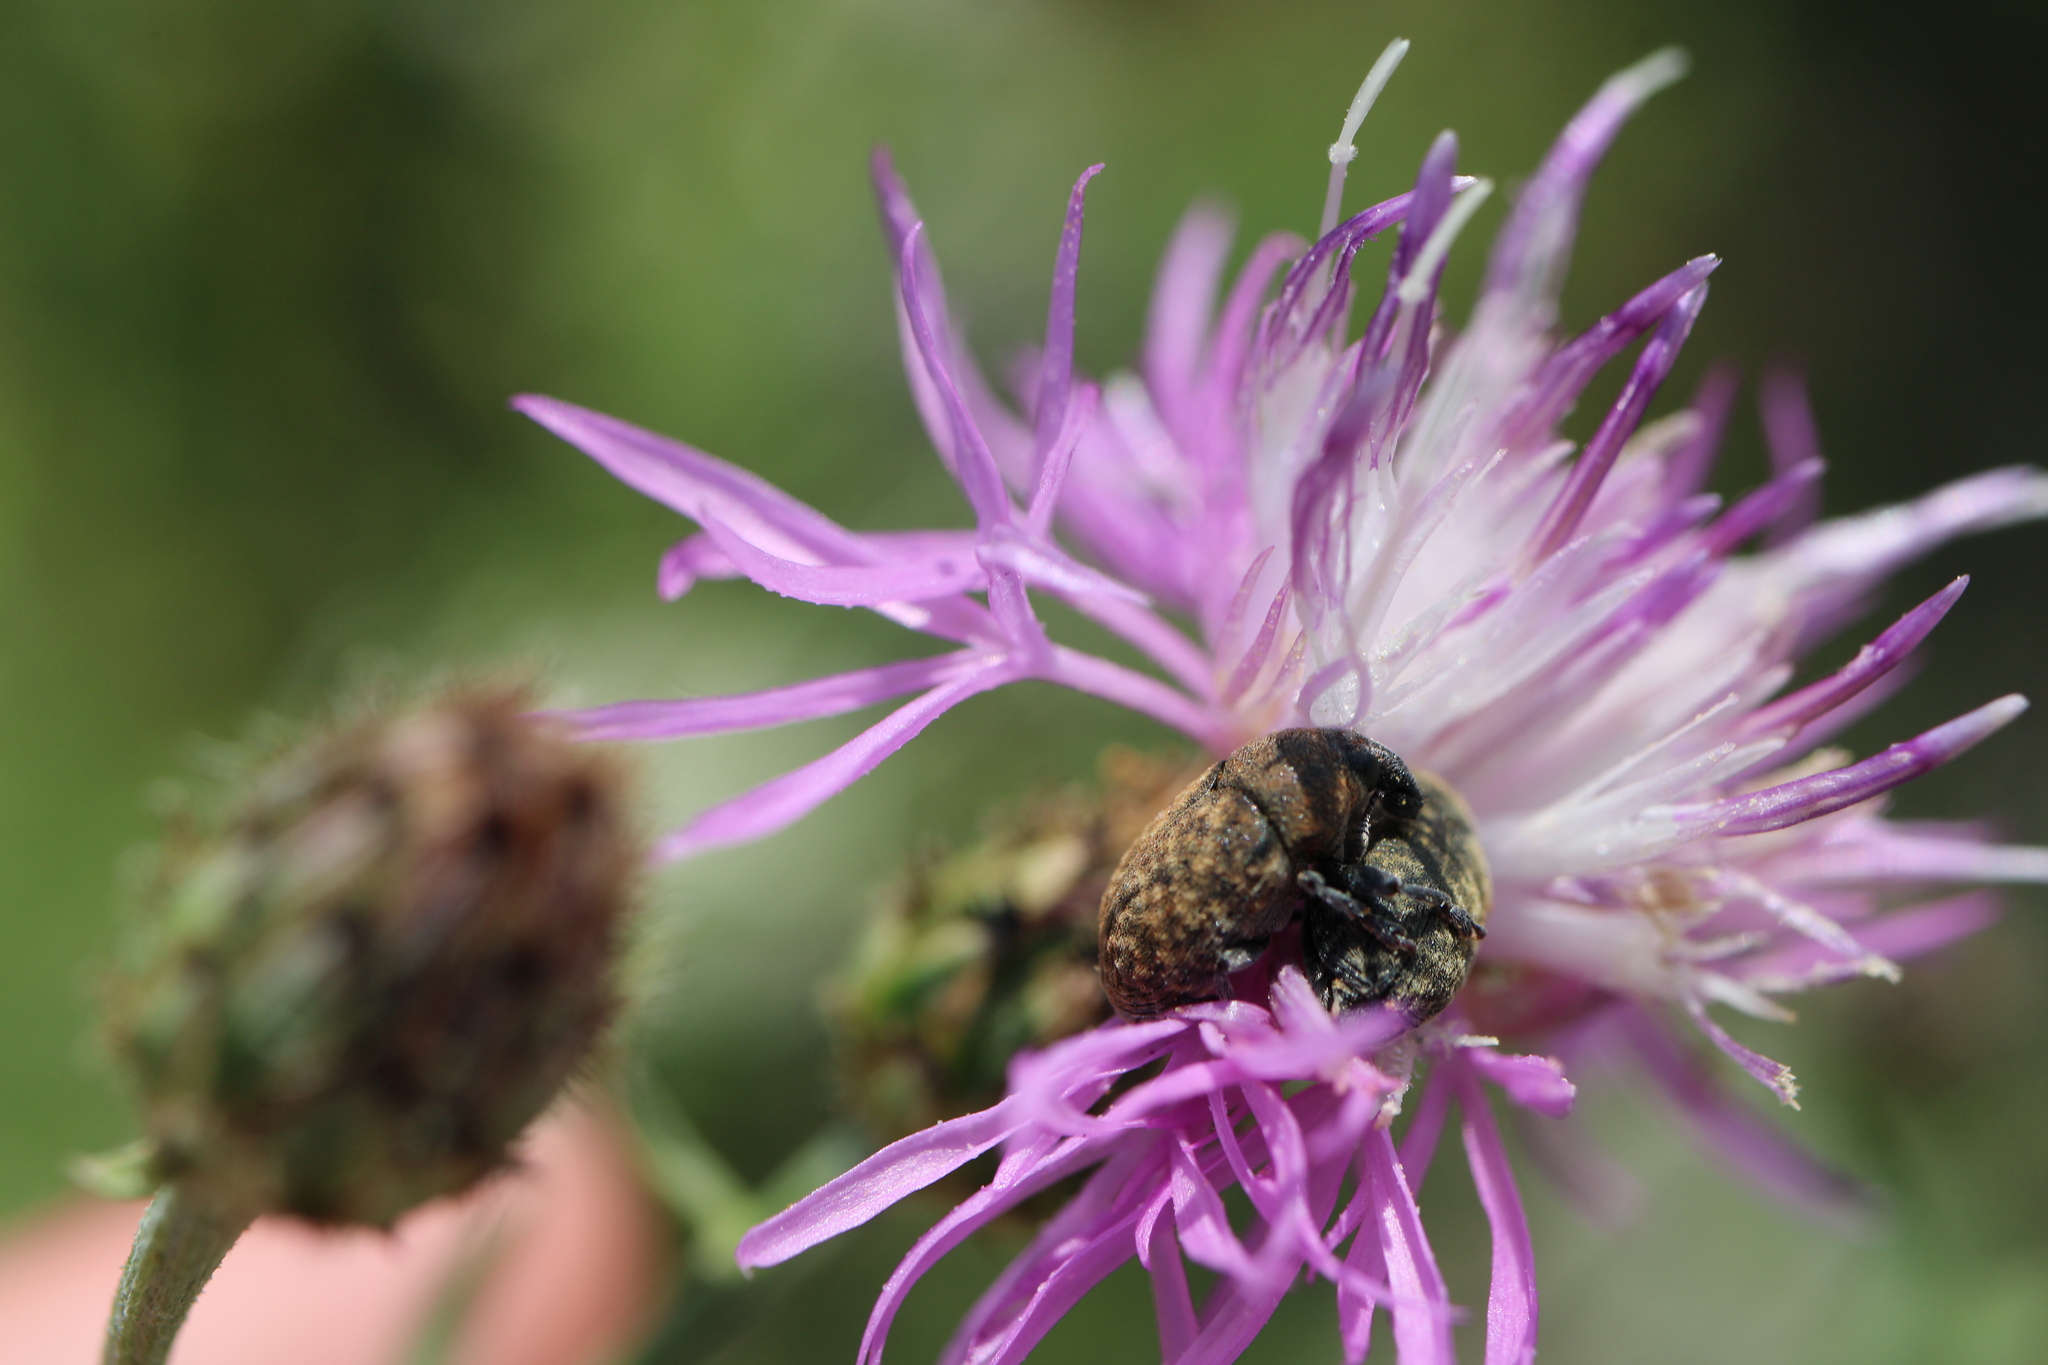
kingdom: Animalia
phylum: Arthropoda
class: Insecta
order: Coleoptera
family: Curculionidae
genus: Larinus
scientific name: Larinus obtusus
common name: Weevil
